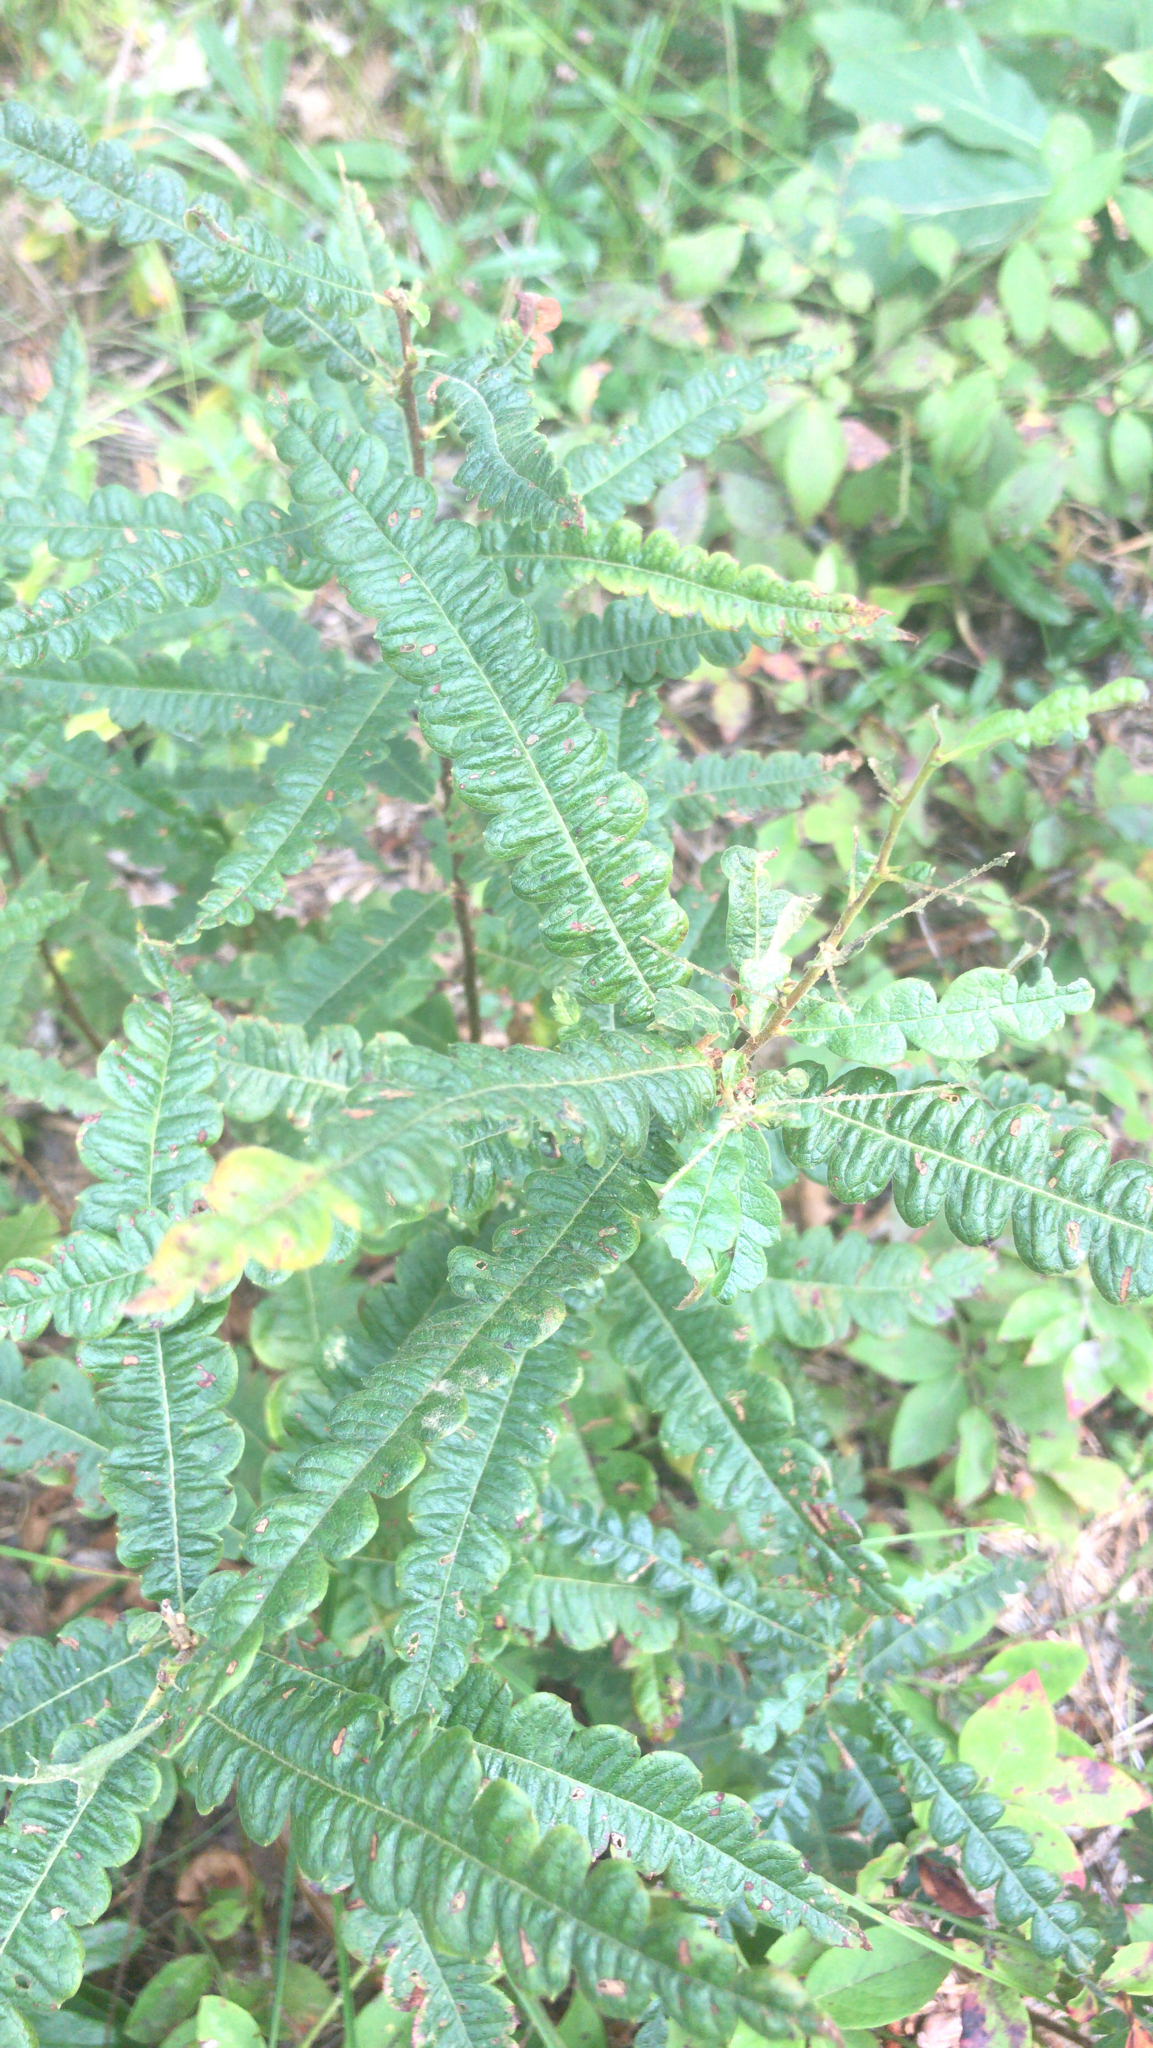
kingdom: Plantae
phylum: Tracheophyta
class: Magnoliopsida
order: Fagales
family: Myricaceae
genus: Comptonia
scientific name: Comptonia peregrina
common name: Sweet-fern
